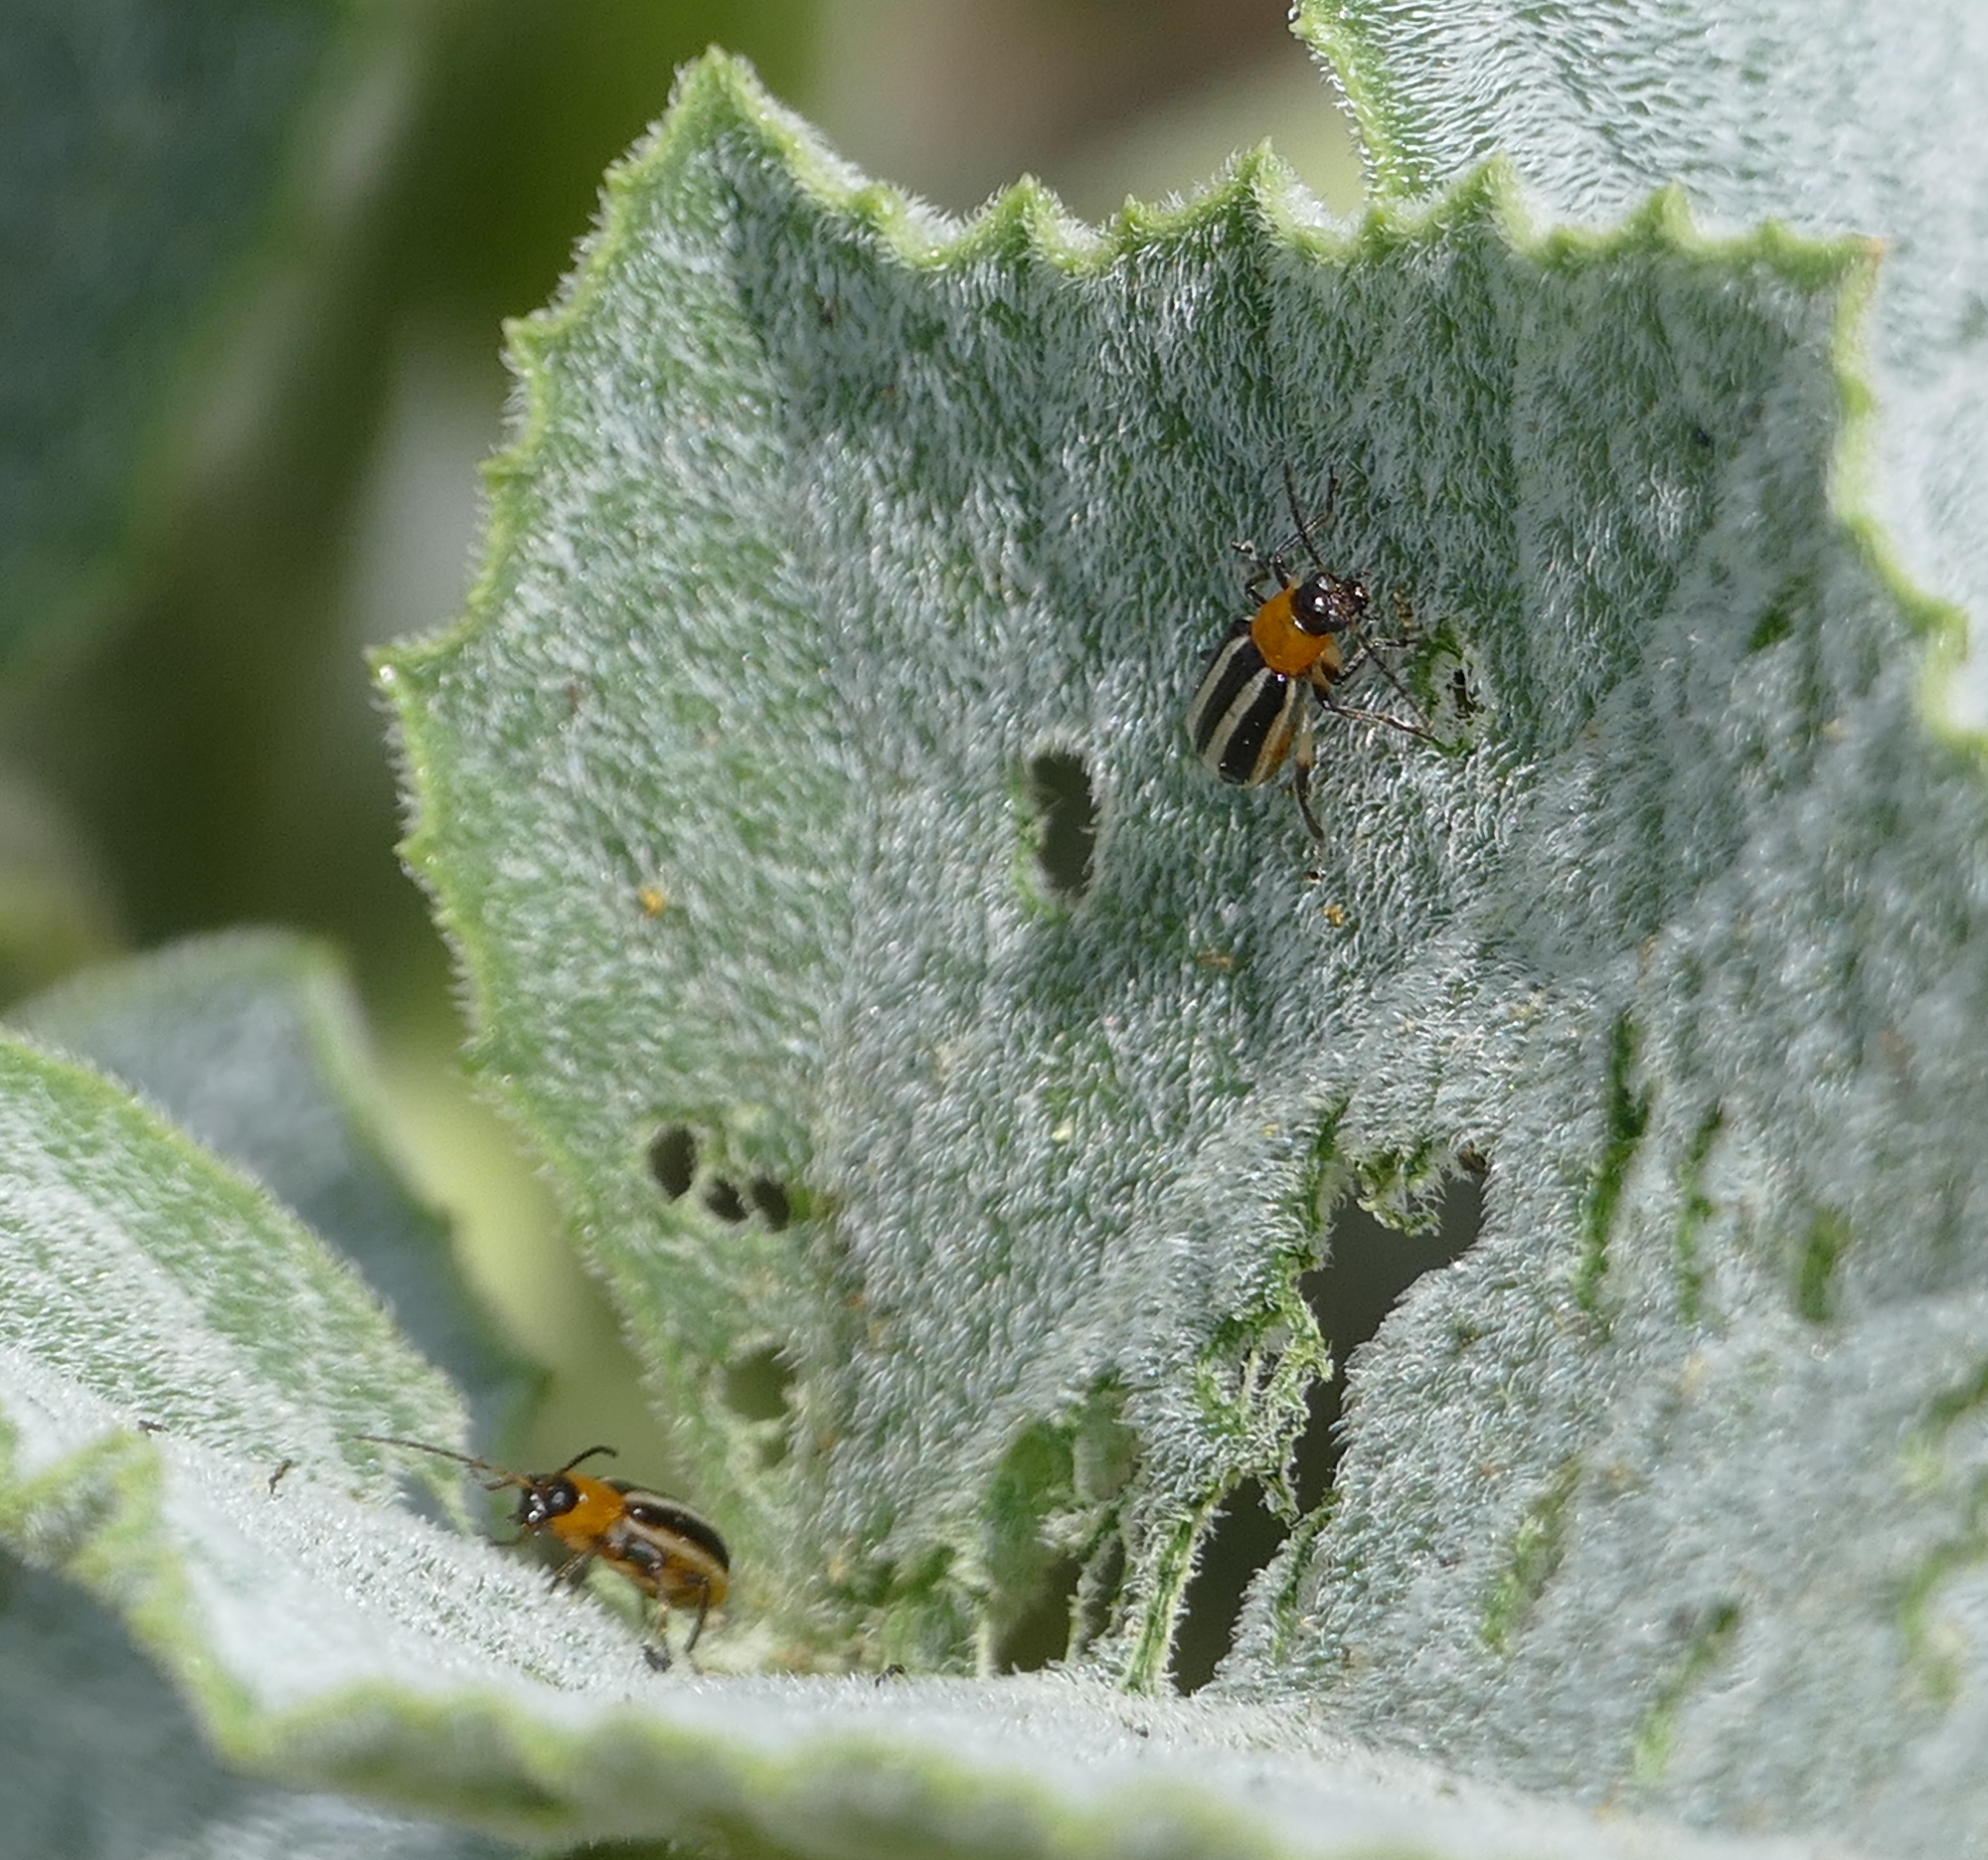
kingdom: Animalia
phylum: Arthropoda
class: Insecta
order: Coleoptera
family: Chrysomelidae
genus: Acalymma
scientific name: Acalymma blandulum
